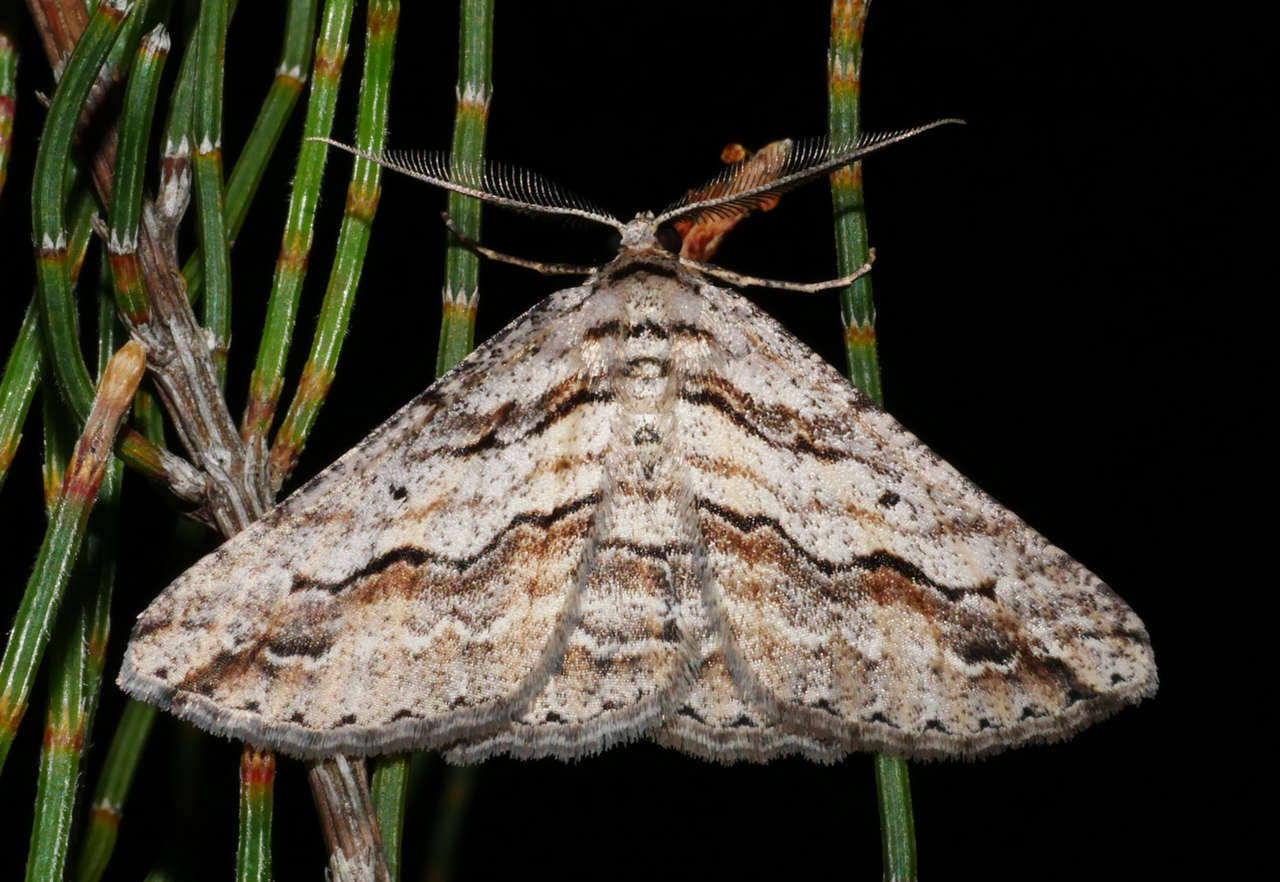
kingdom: Animalia
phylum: Arthropoda
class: Insecta
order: Lepidoptera
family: Geometridae
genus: Syneora
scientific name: Syneora mundifera
